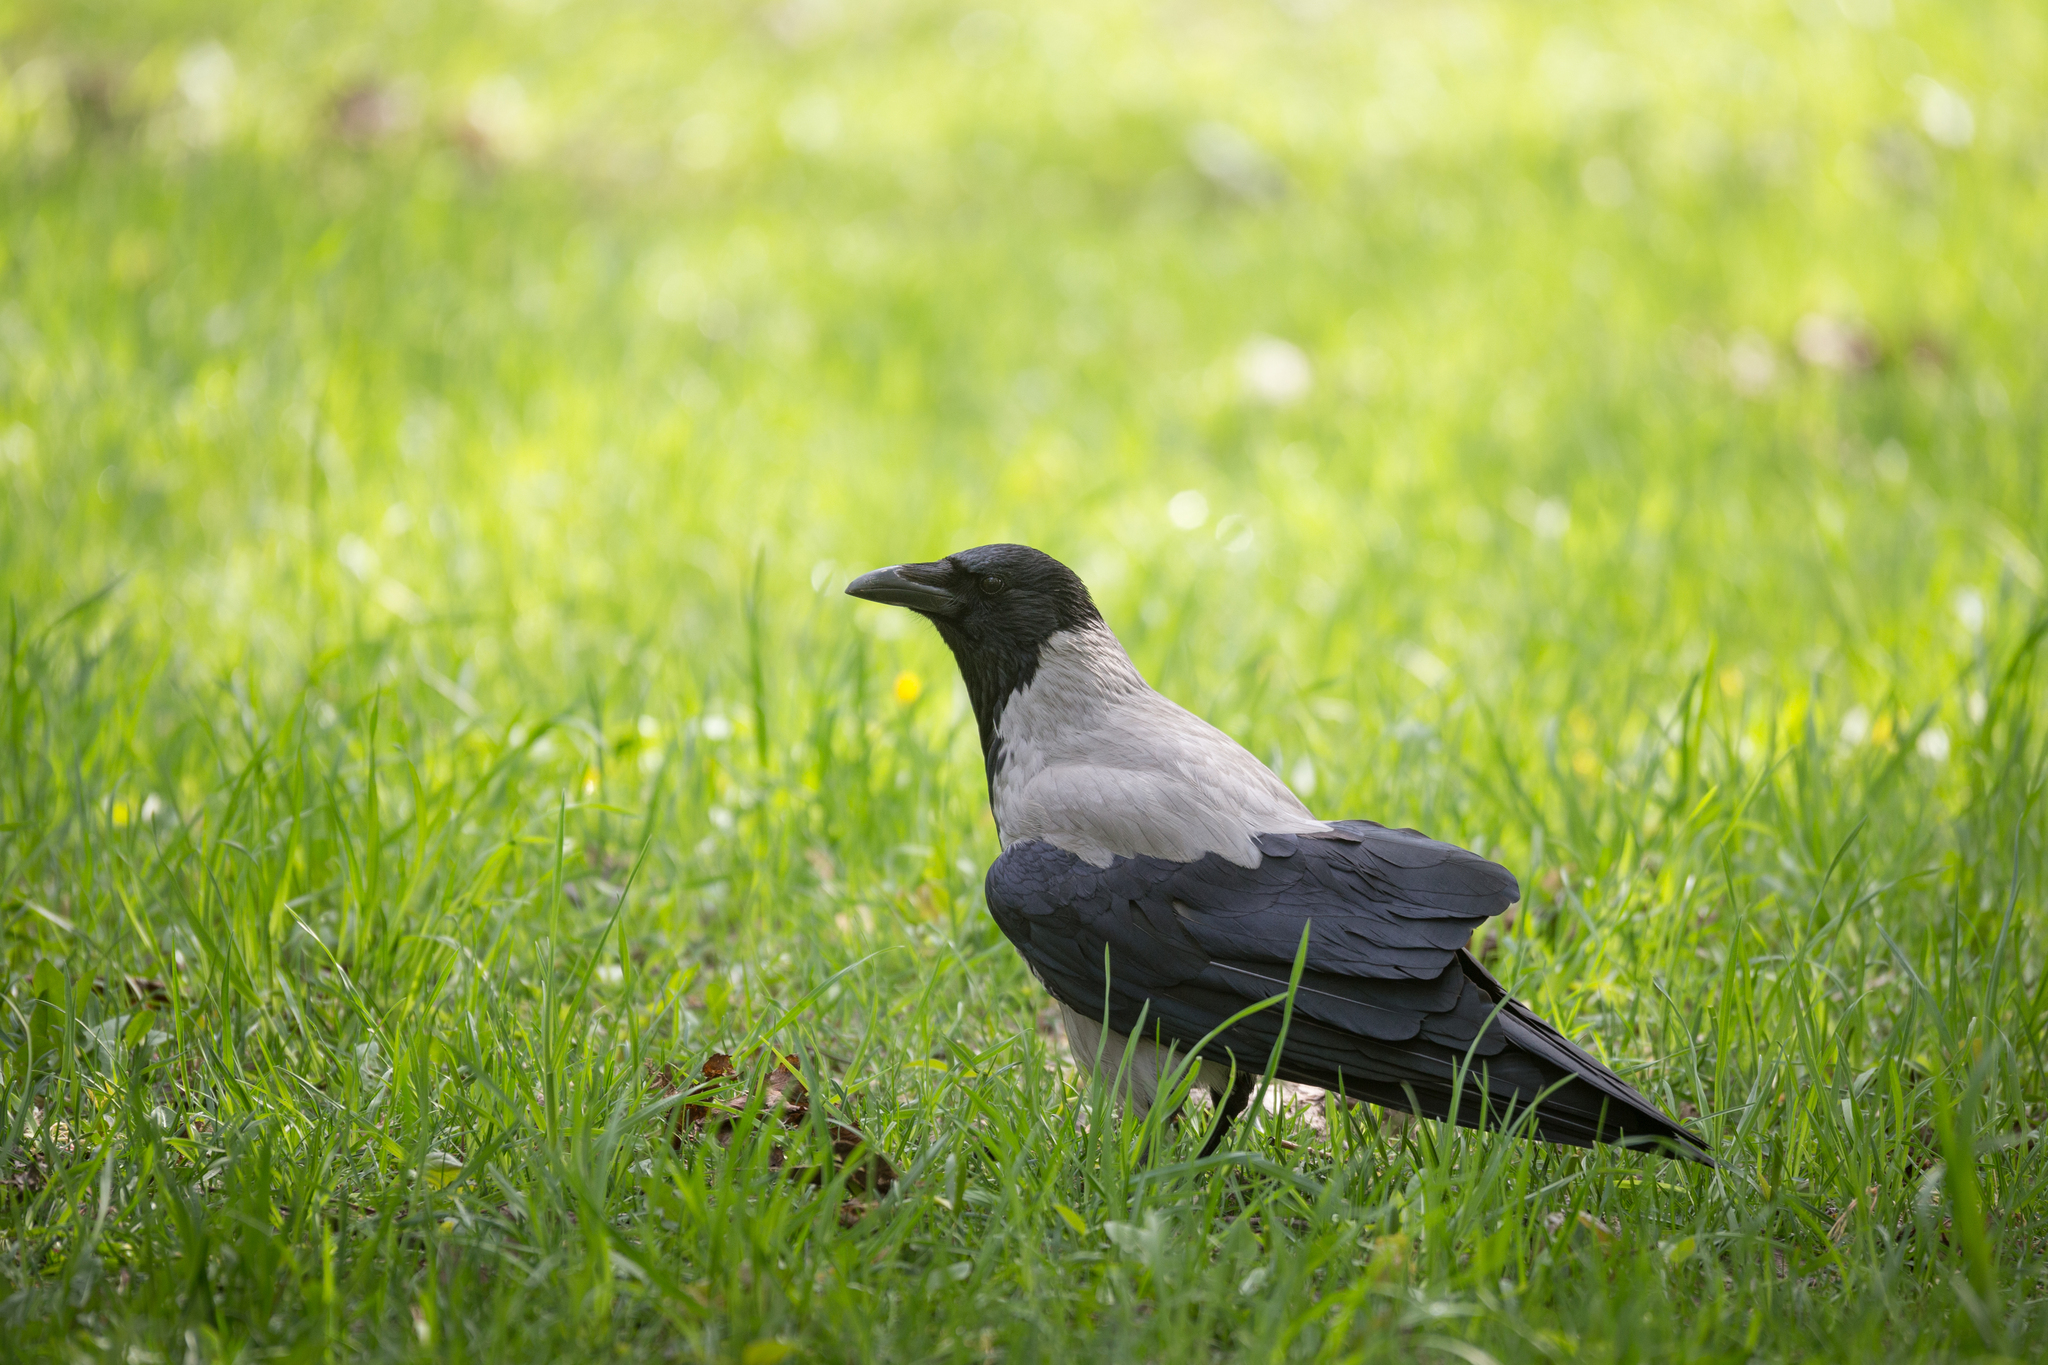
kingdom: Animalia
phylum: Chordata
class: Aves
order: Passeriformes
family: Corvidae
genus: Corvus
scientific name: Corvus cornix
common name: Hooded crow
